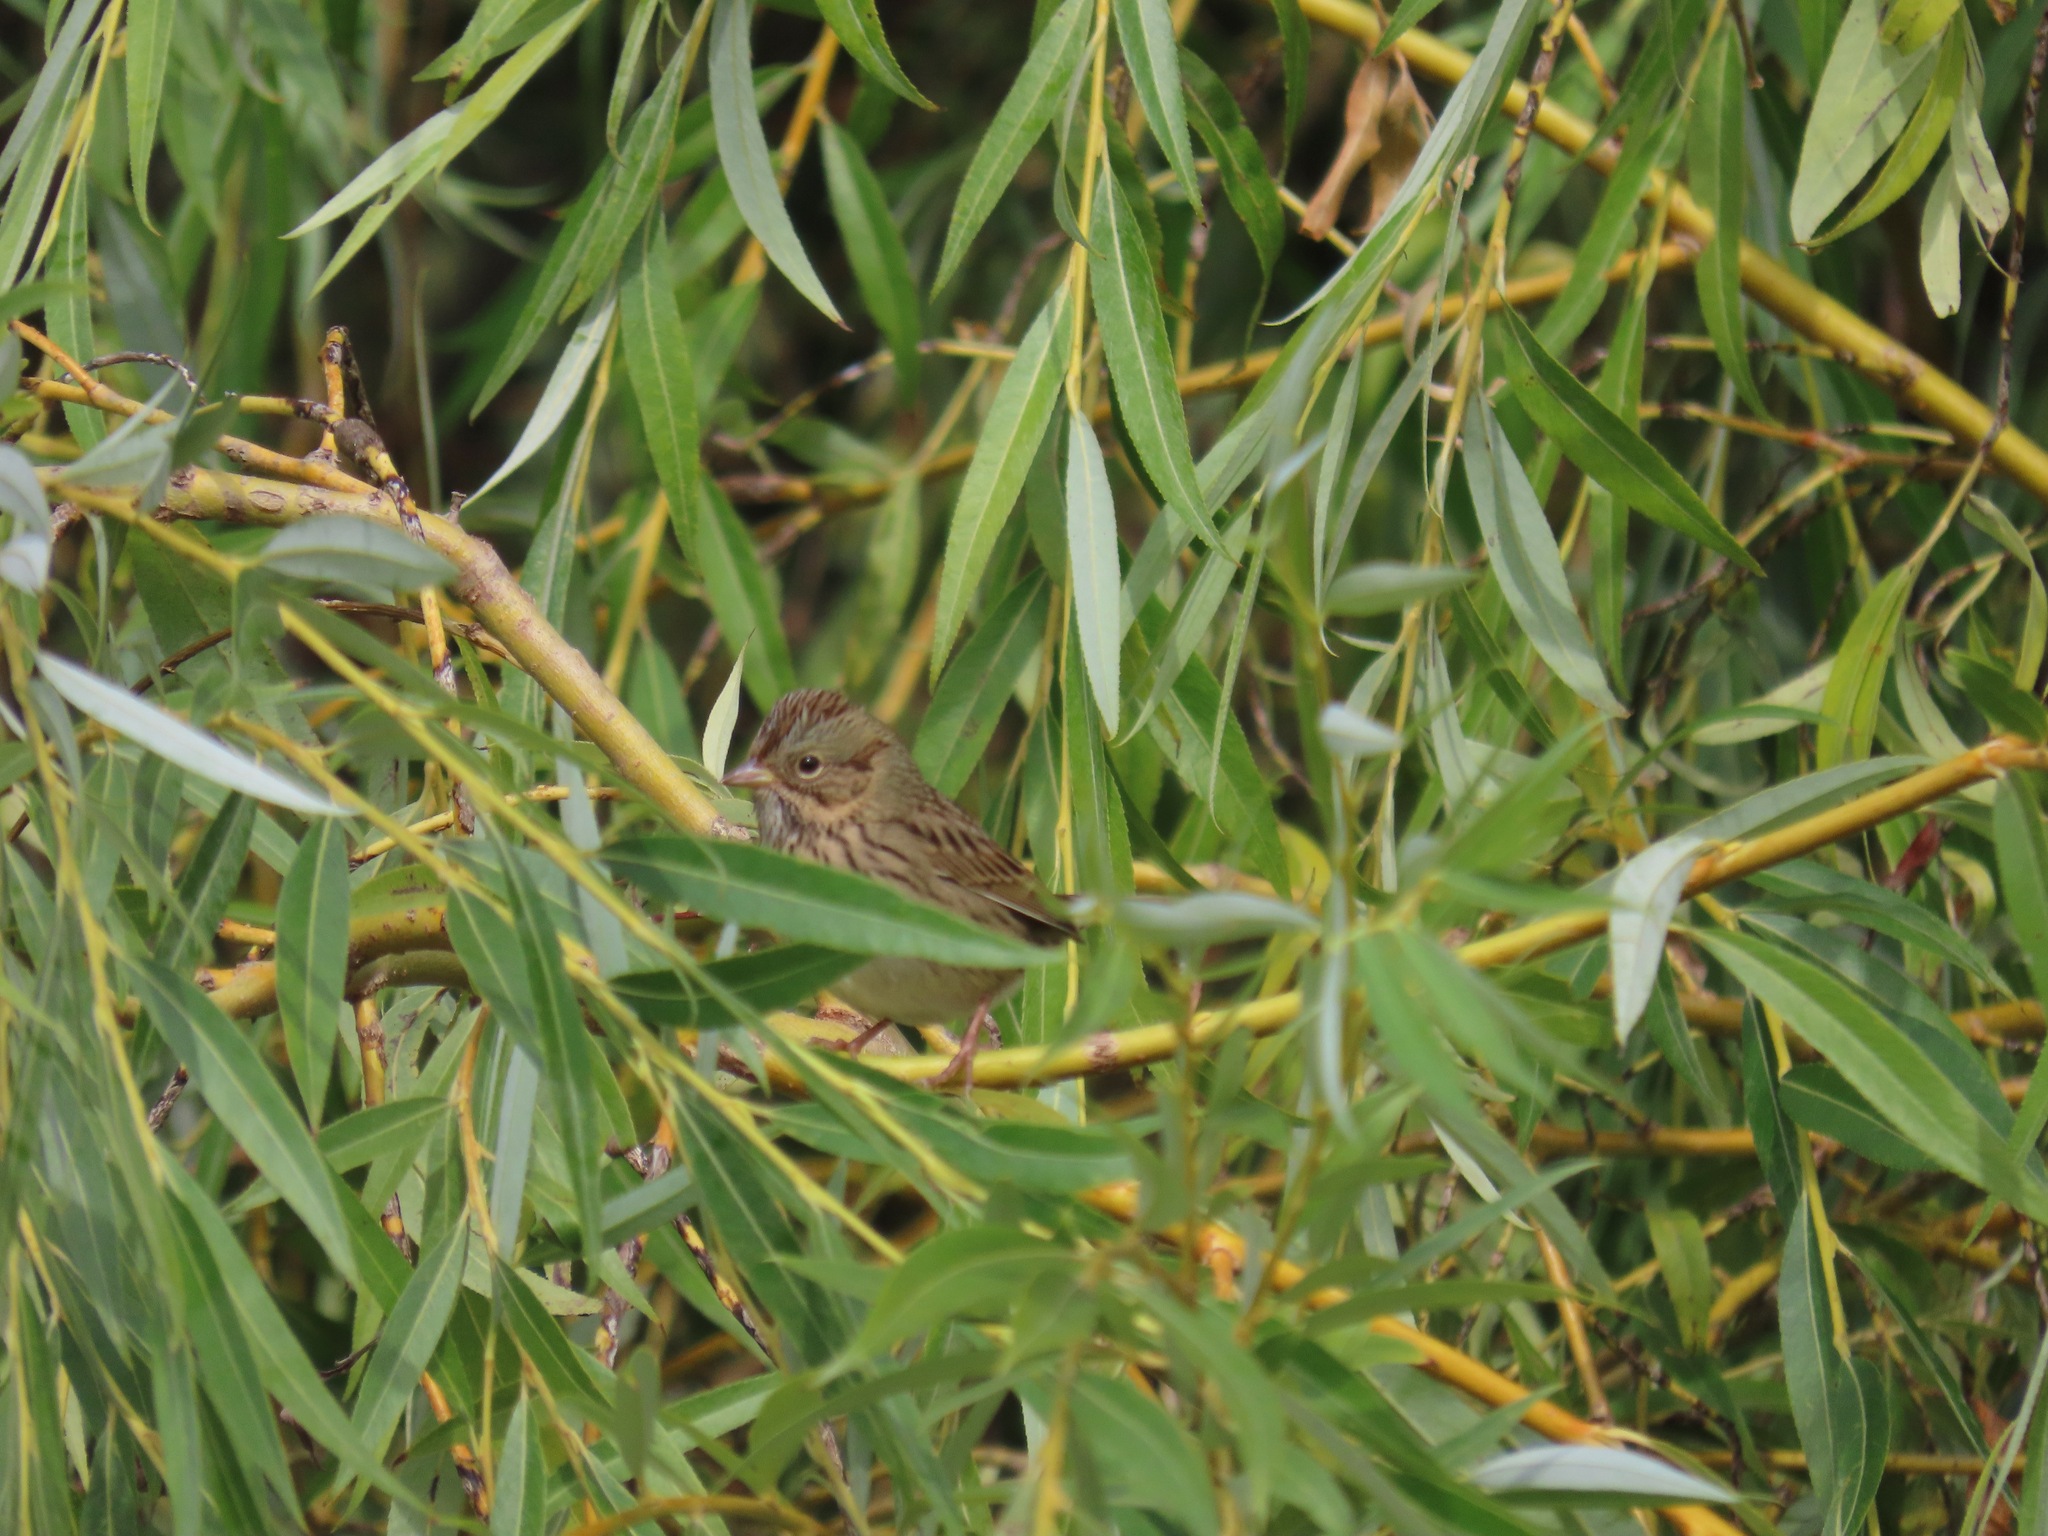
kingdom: Animalia
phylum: Chordata
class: Aves
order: Passeriformes
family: Passerellidae
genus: Melospiza
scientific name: Melospiza lincolnii
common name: Lincoln's sparrow
